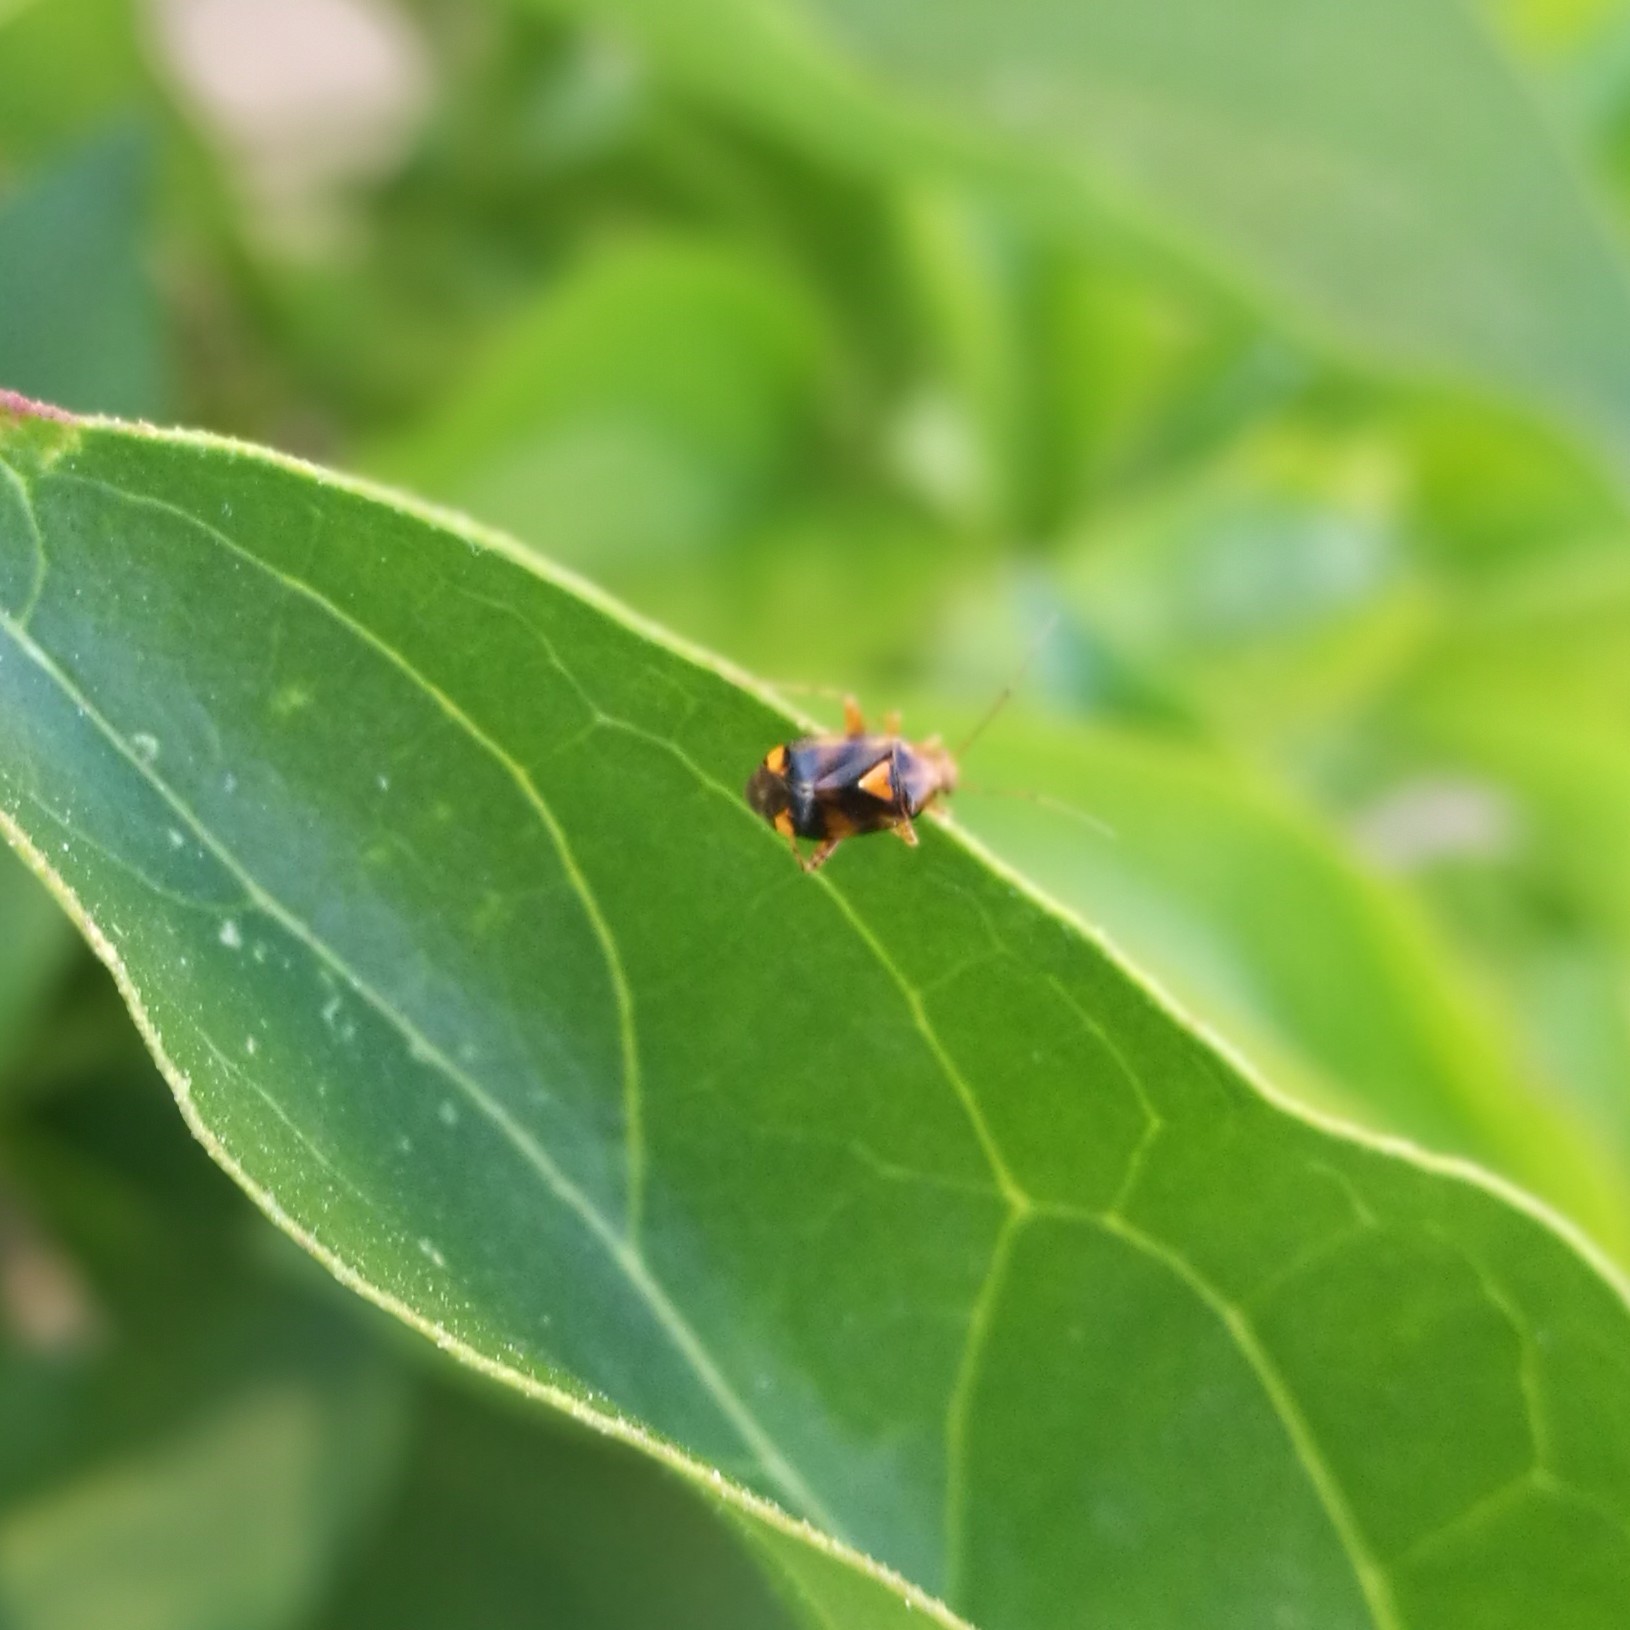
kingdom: Animalia
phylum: Arthropoda
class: Insecta
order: Hemiptera
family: Miridae
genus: Liocoris
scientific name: Liocoris tripustulatus
